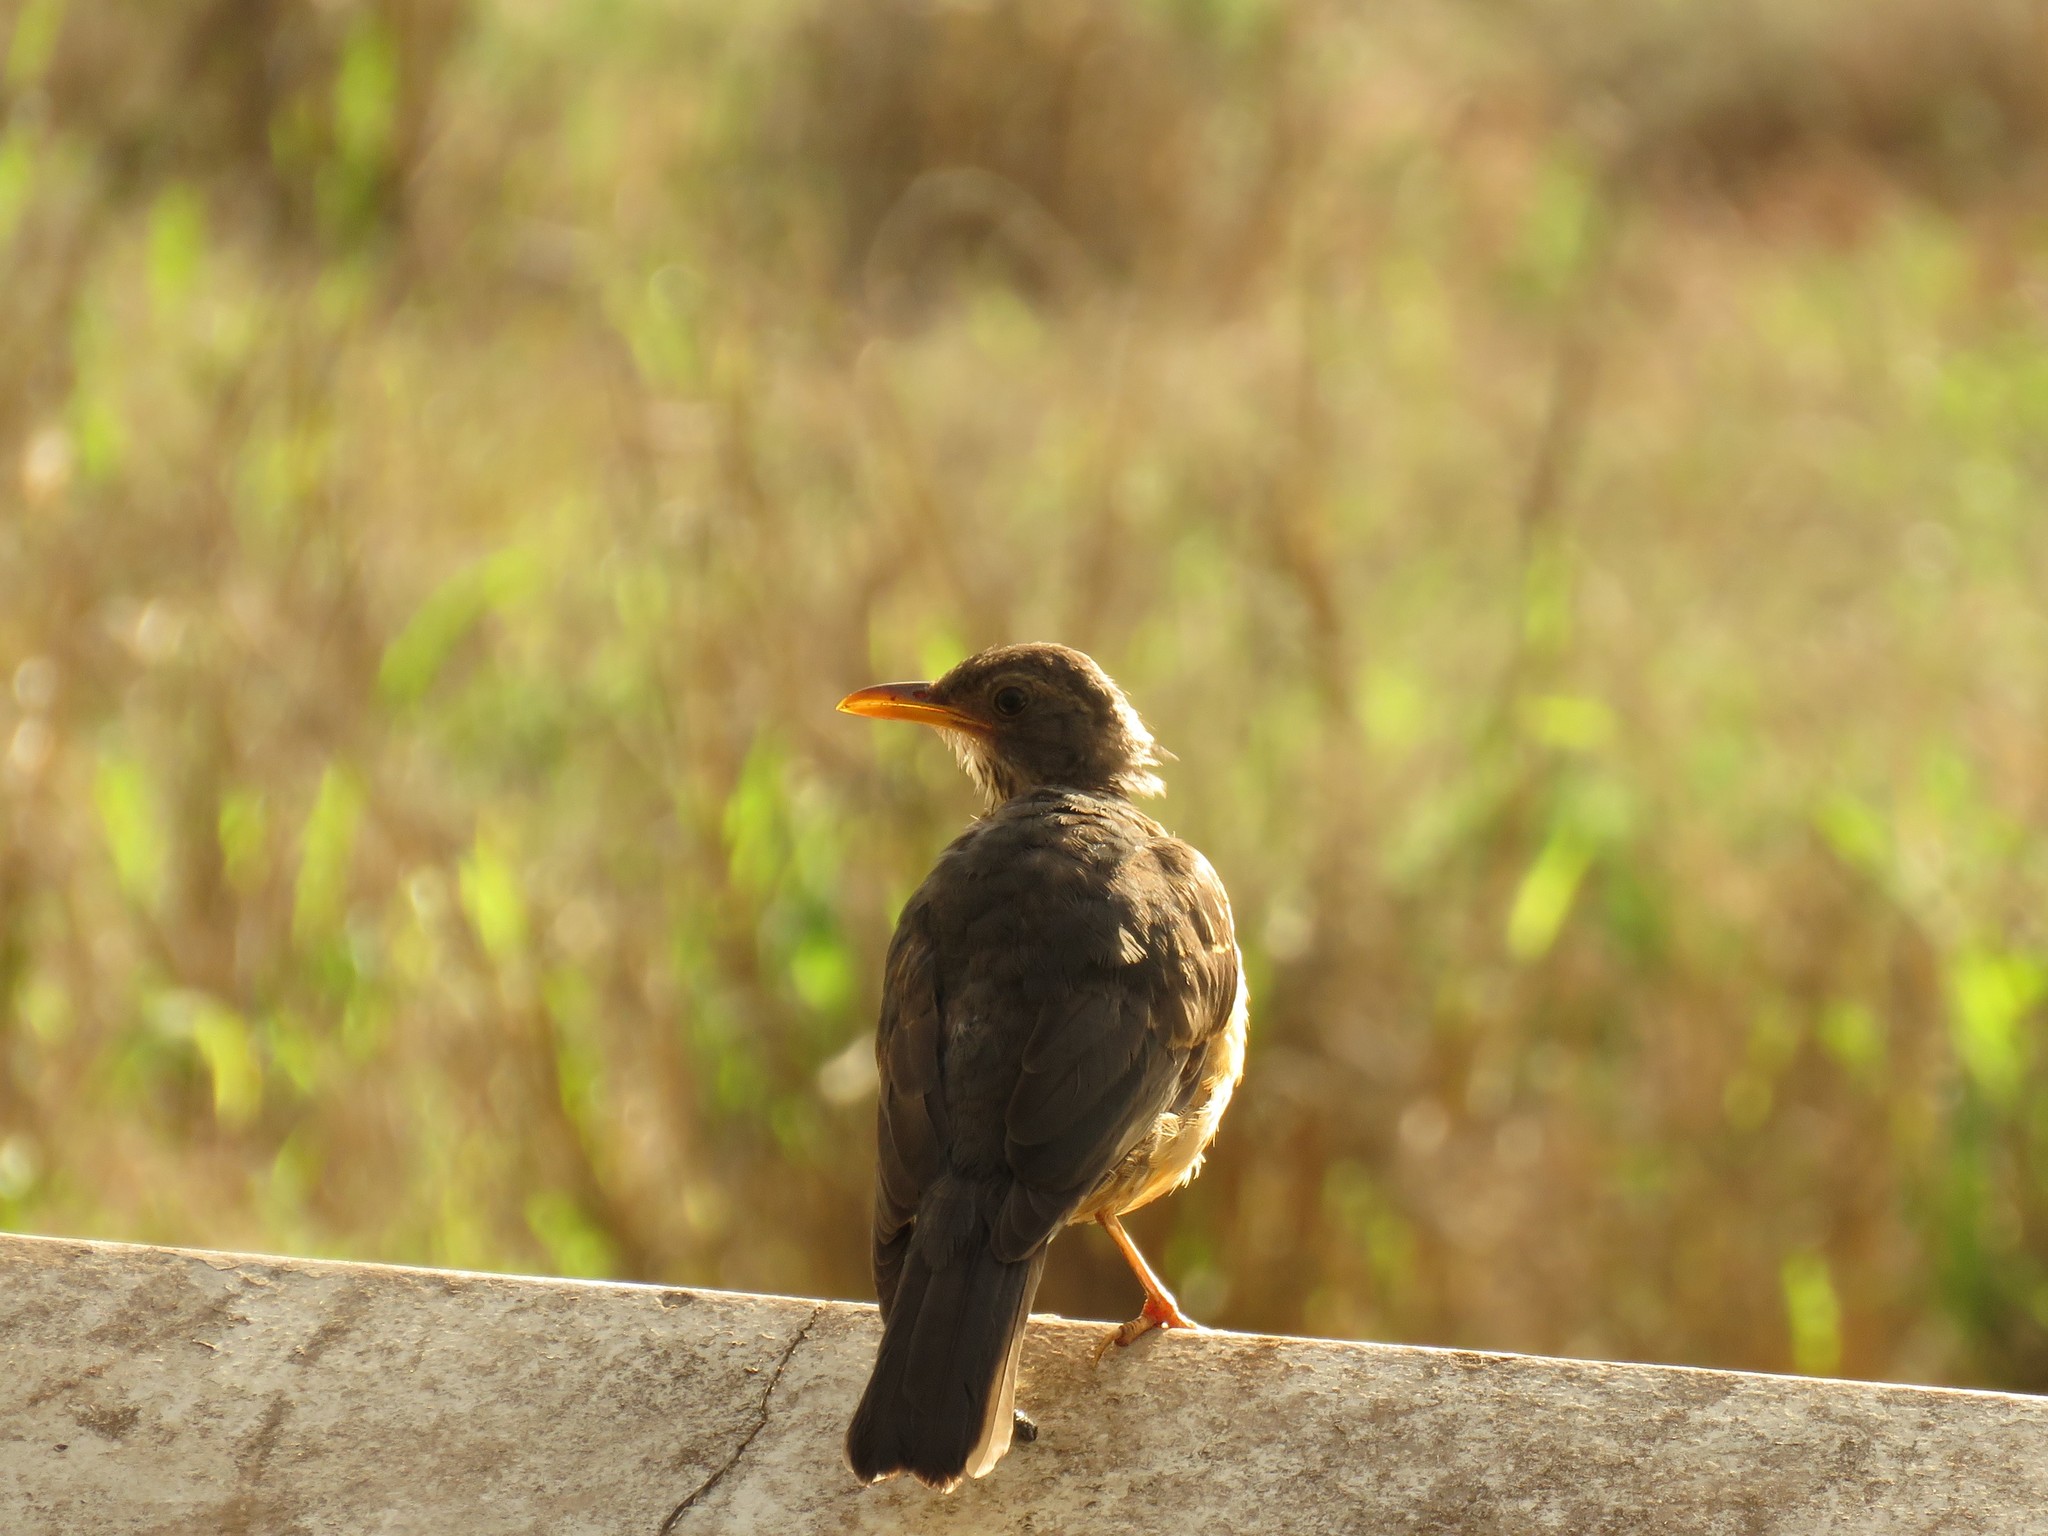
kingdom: Animalia
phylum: Chordata
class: Aves
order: Passeriformes
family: Turdidae
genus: Turdus
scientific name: Turdus olivaceus
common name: Olive thrush
